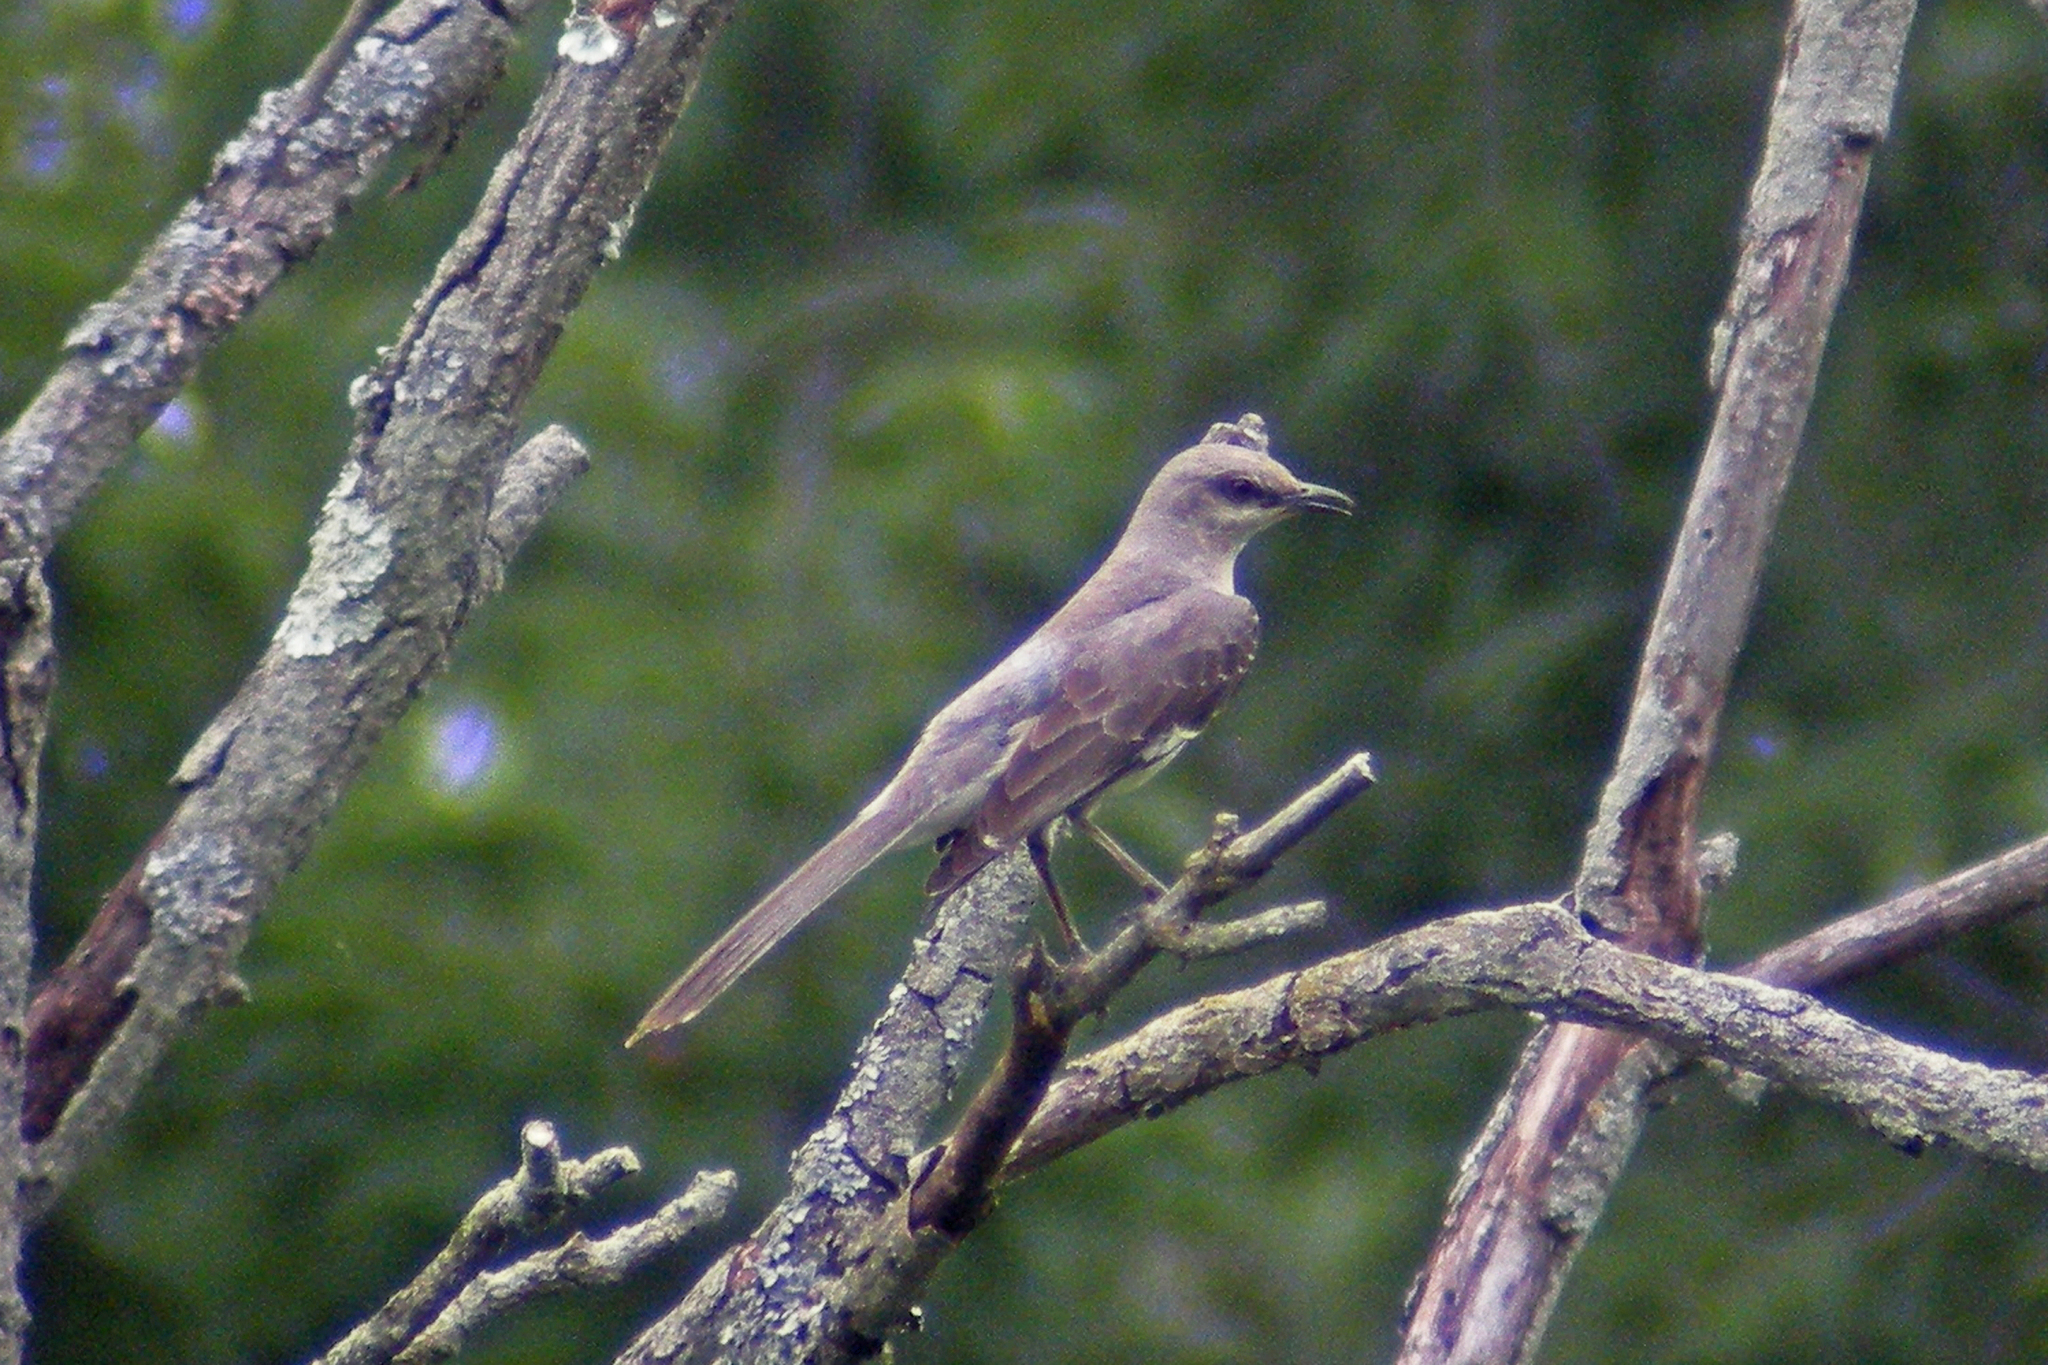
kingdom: Animalia
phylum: Chordata
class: Aves
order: Passeriformes
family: Mimidae
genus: Mimus
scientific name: Mimus polyglottos
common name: Northern mockingbird
